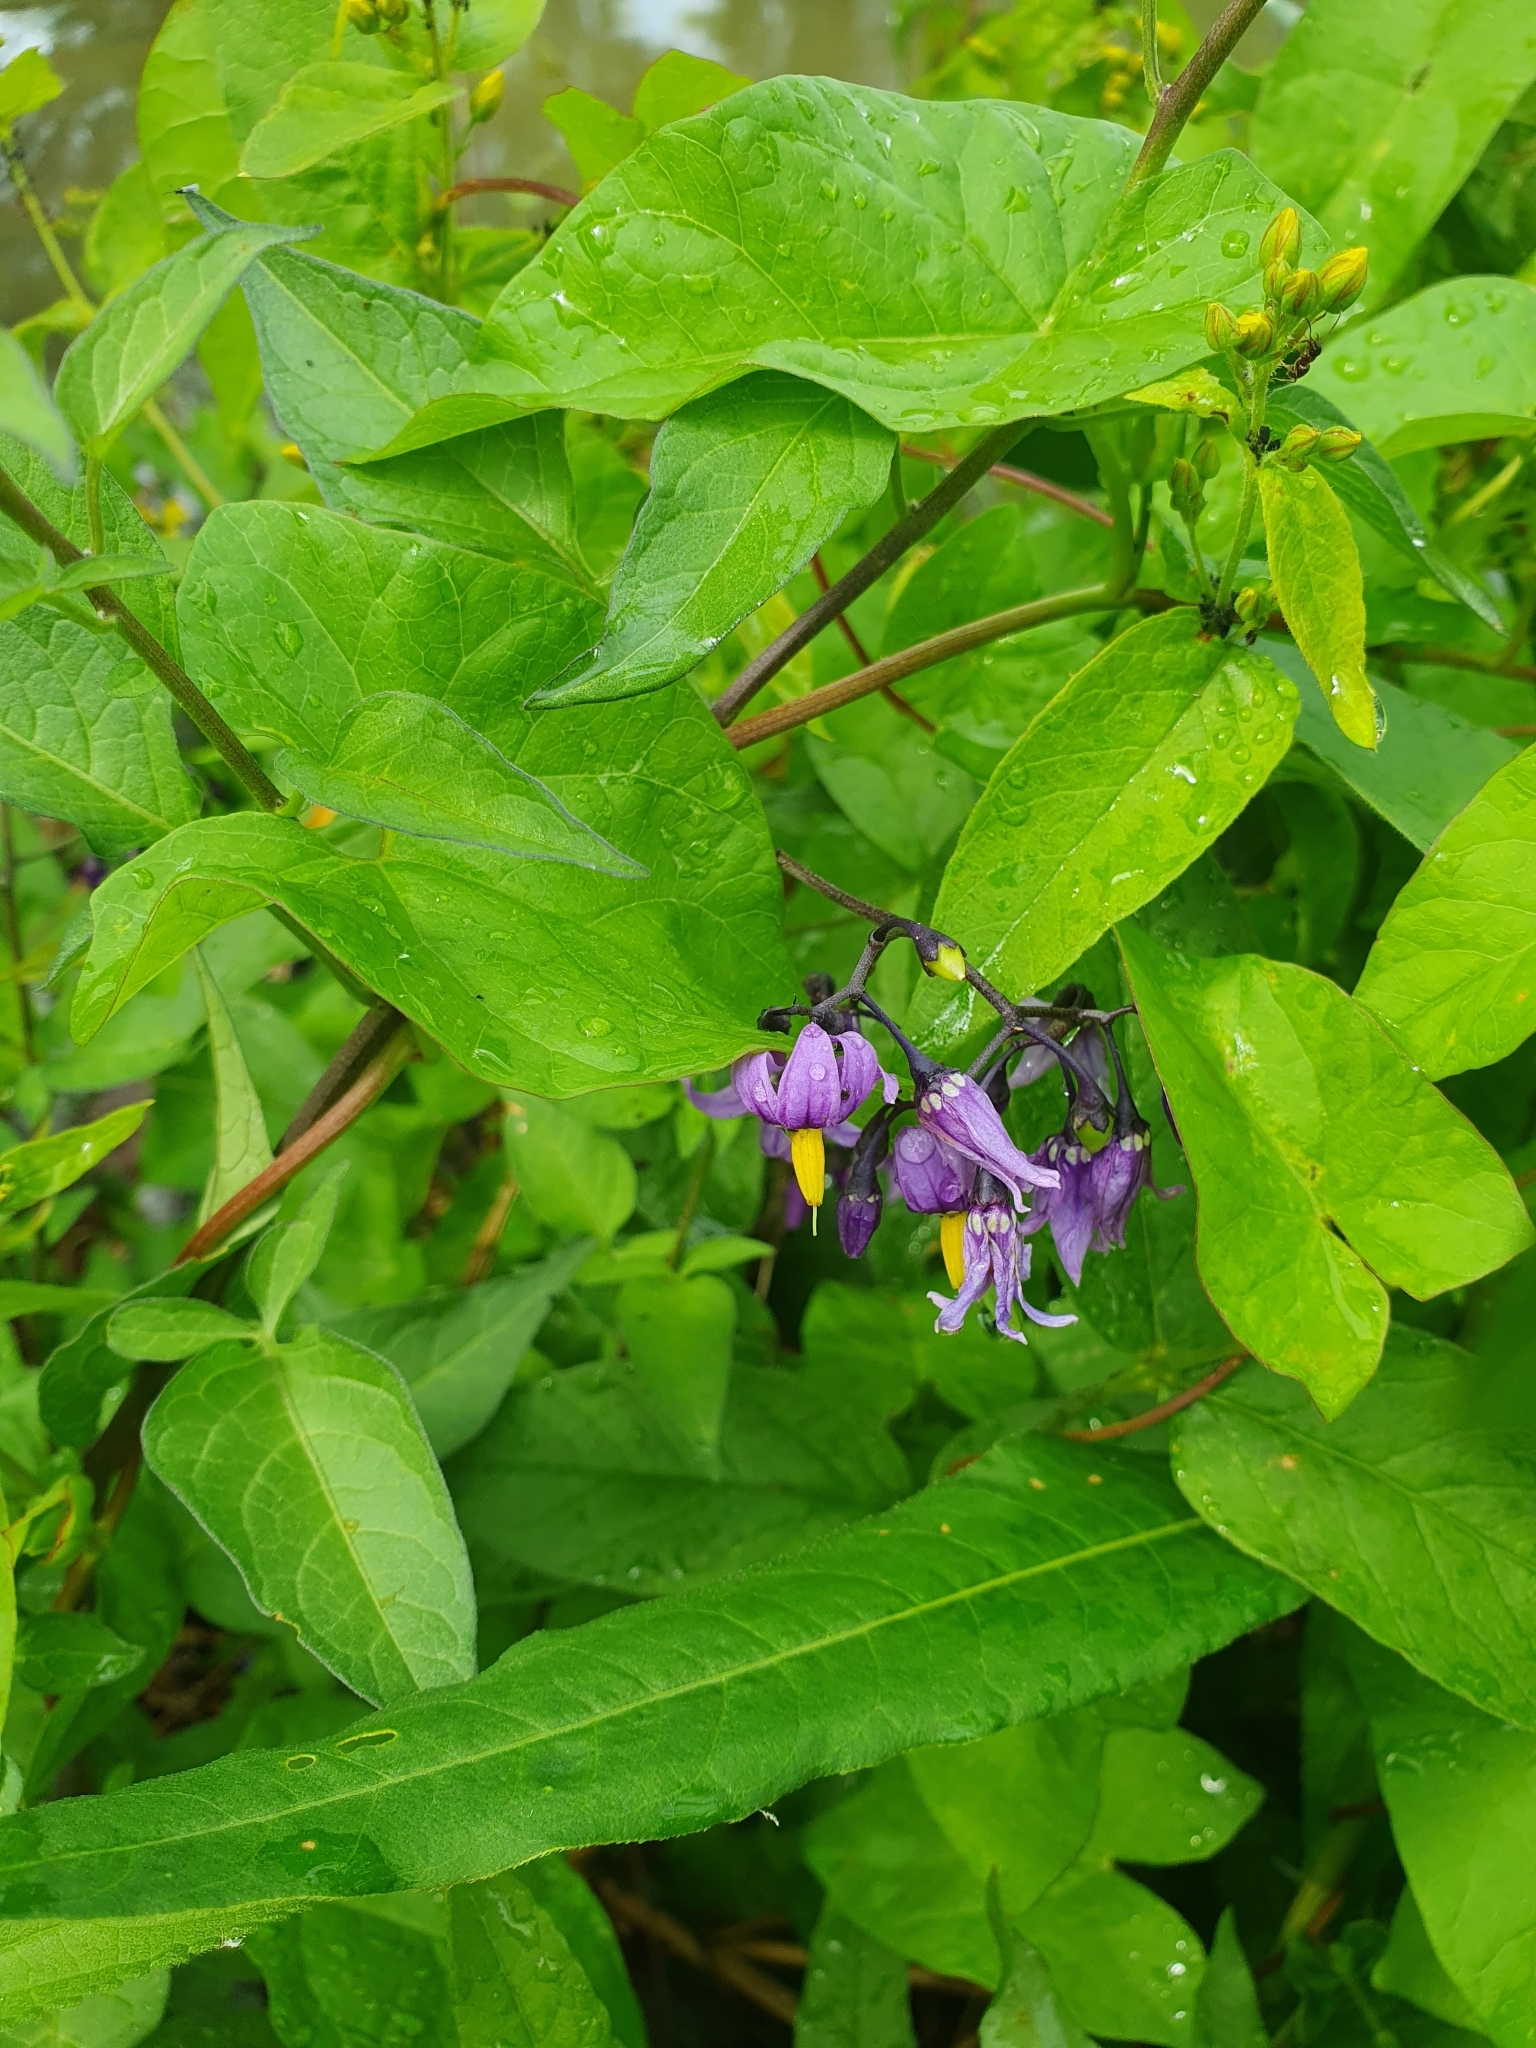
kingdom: Plantae
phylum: Tracheophyta
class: Magnoliopsida
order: Solanales
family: Solanaceae
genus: Solanum
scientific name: Solanum dulcamara
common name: Climbing nightshade
